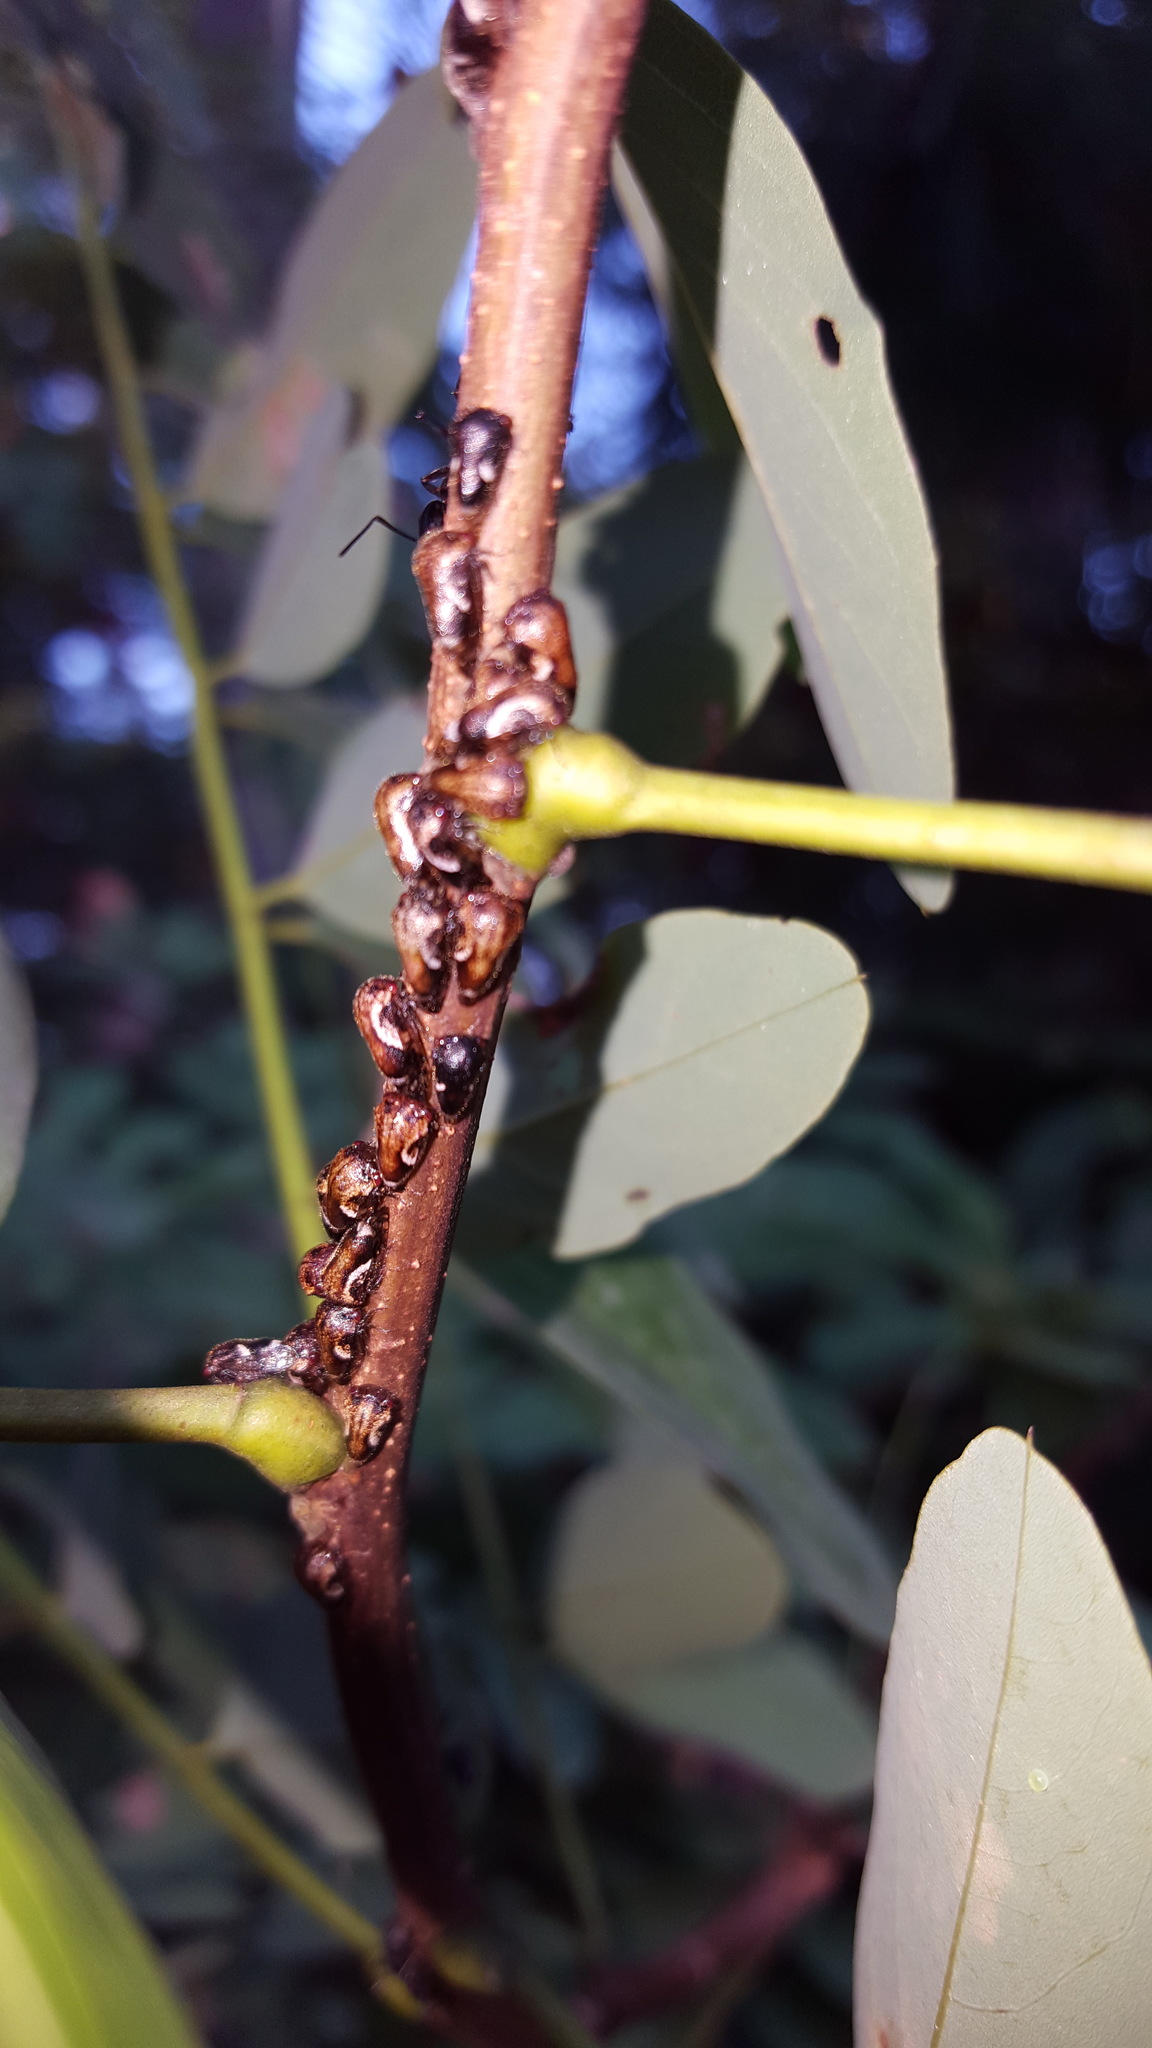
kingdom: Animalia
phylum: Arthropoda
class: Insecta
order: Hemiptera
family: Membracidae
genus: Vanduzea
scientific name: Vanduzea arquata
